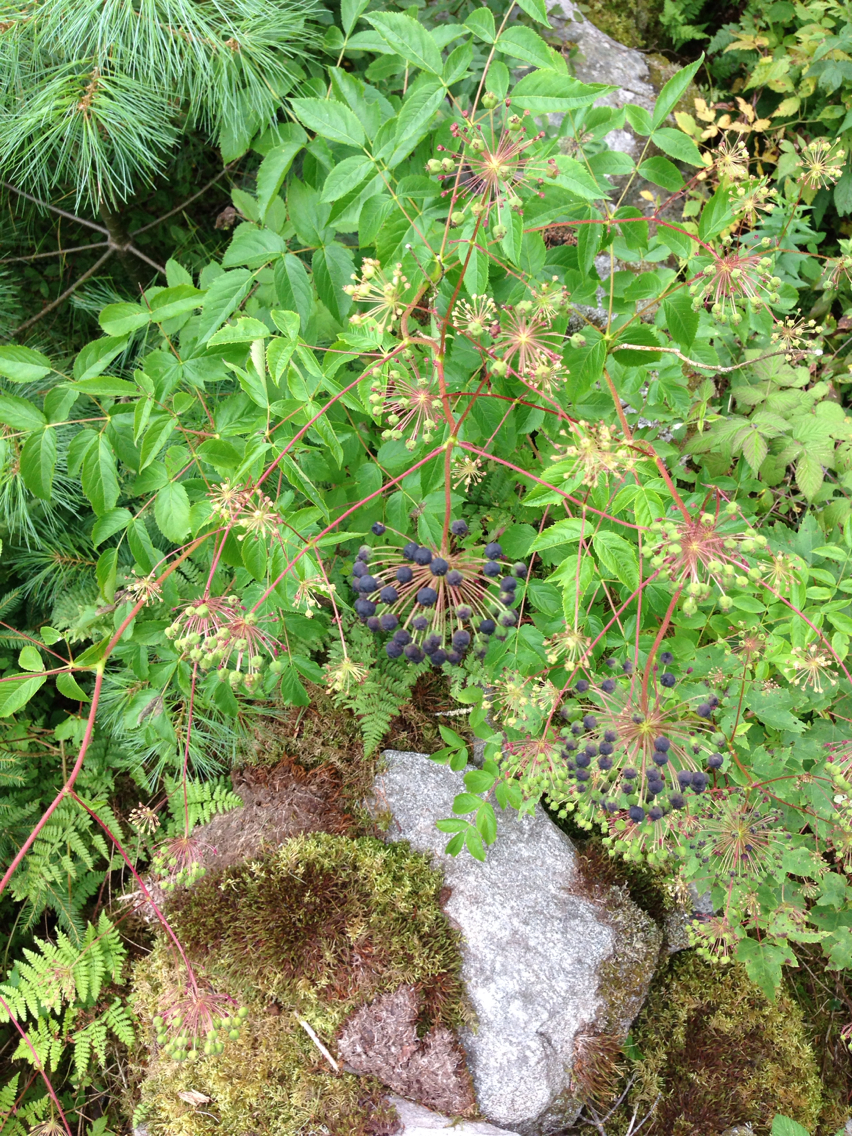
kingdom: Plantae
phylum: Tracheophyta
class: Magnoliopsida
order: Apiales
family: Araliaceae
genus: Aralia
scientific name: Aralia hispida
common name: Bristly sarsaparilla
